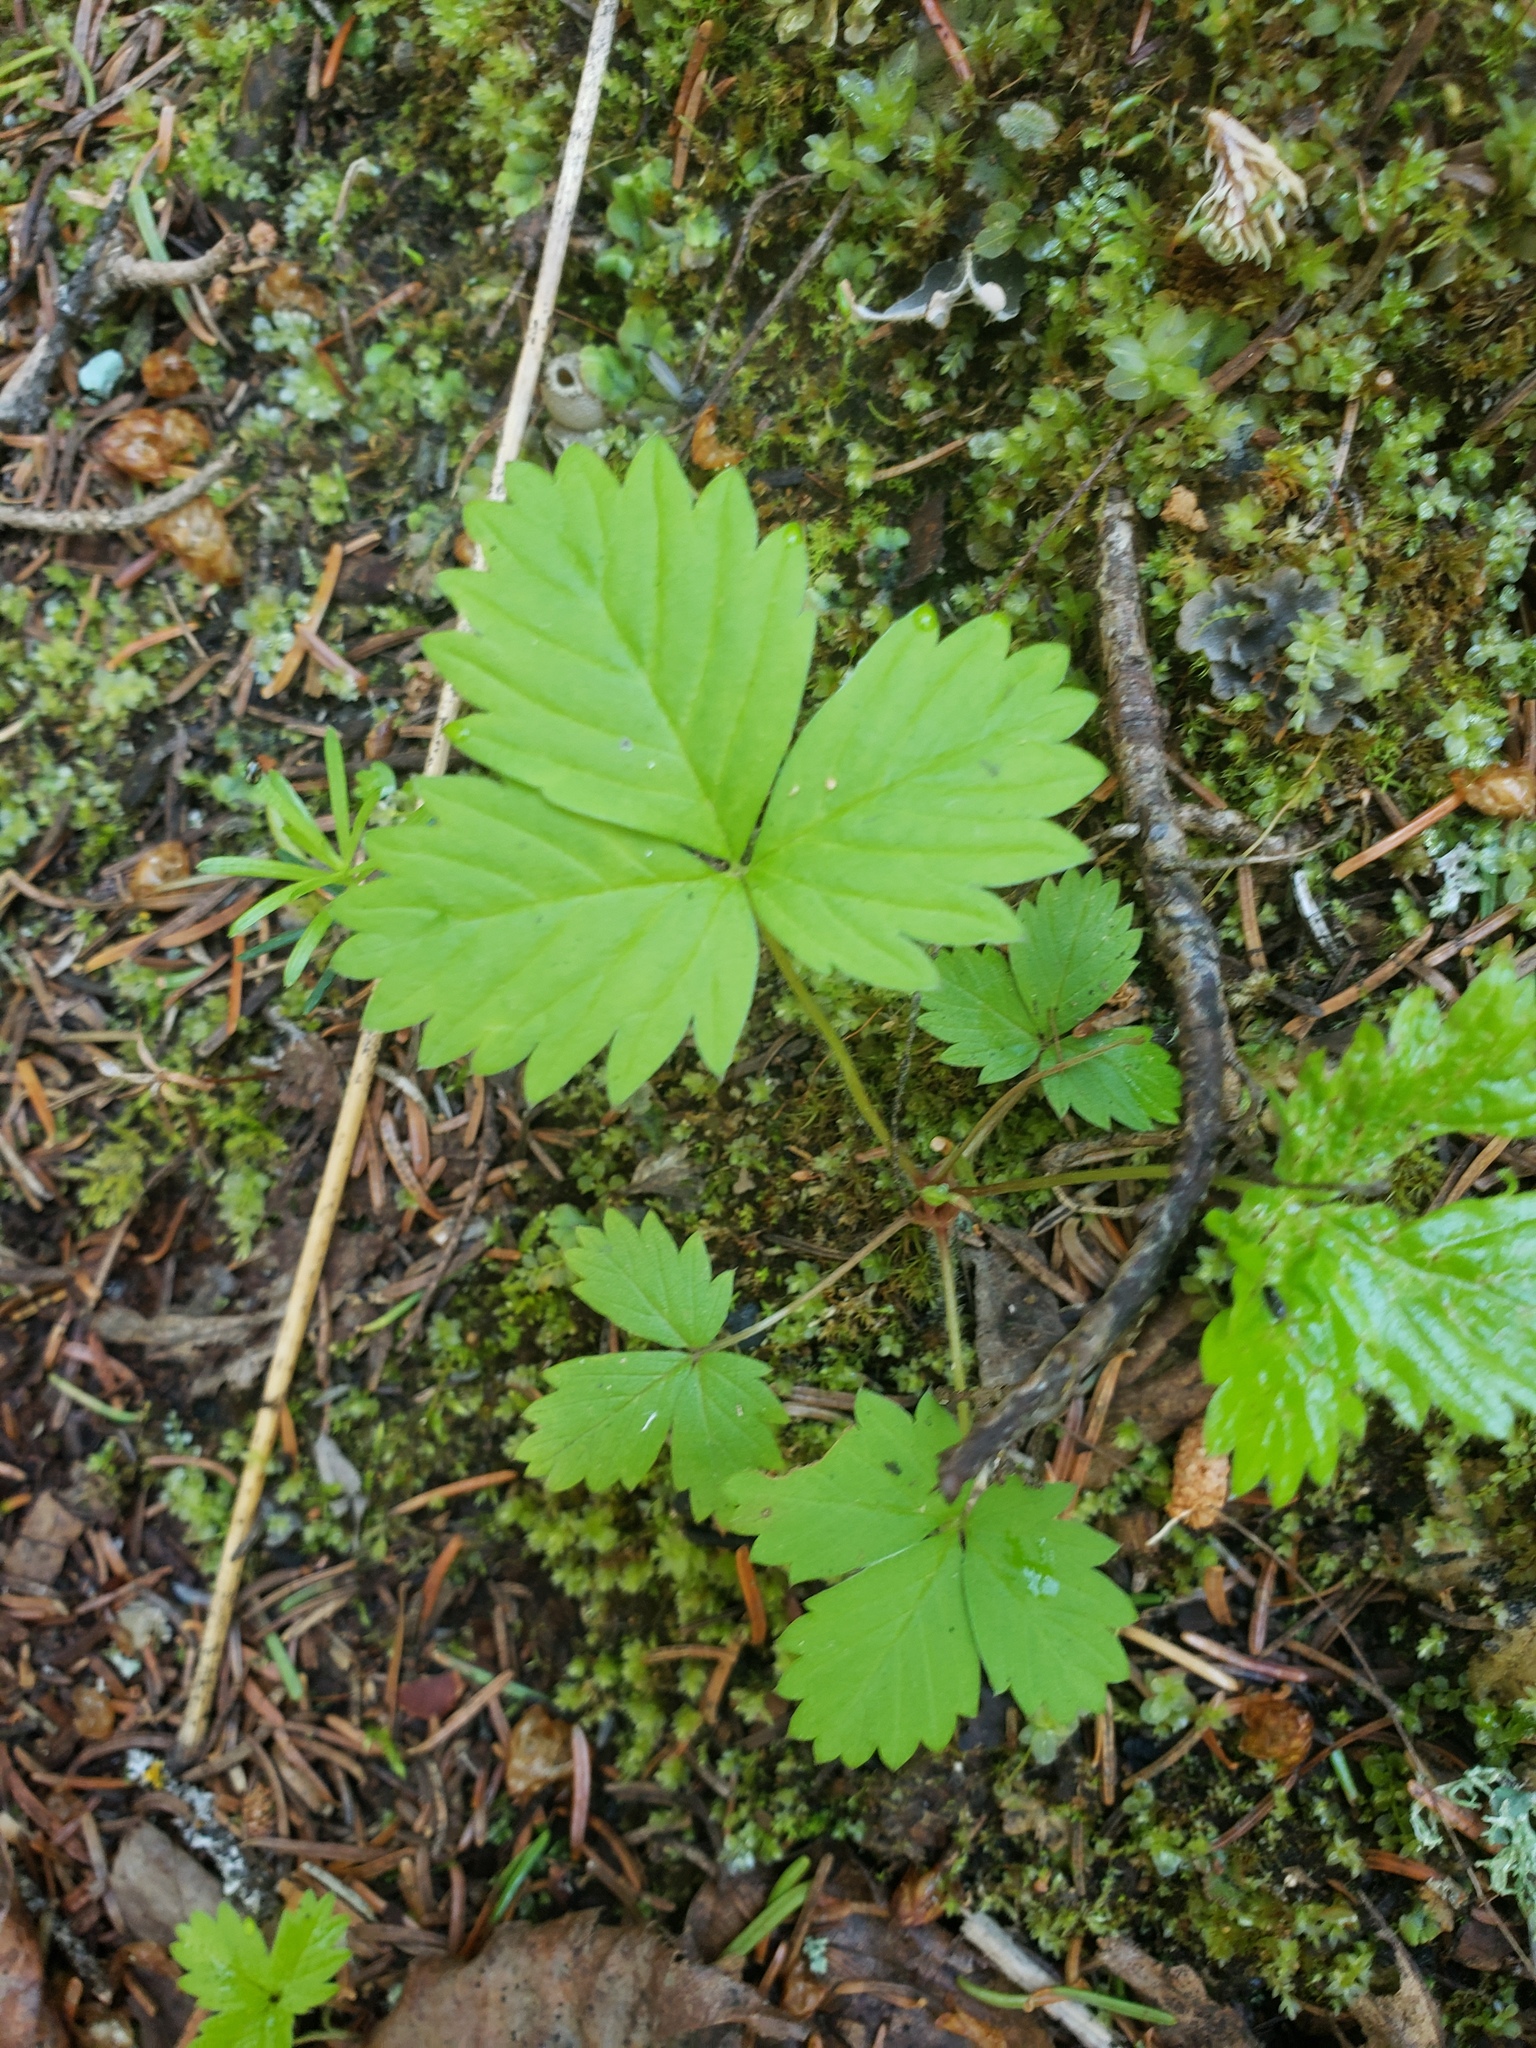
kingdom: Plantae
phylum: Tracheophyta
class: Magnoliopsida
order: Rosales
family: Rosaceae
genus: Fragaria
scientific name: Fragaria vesca
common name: Wild strawberry
